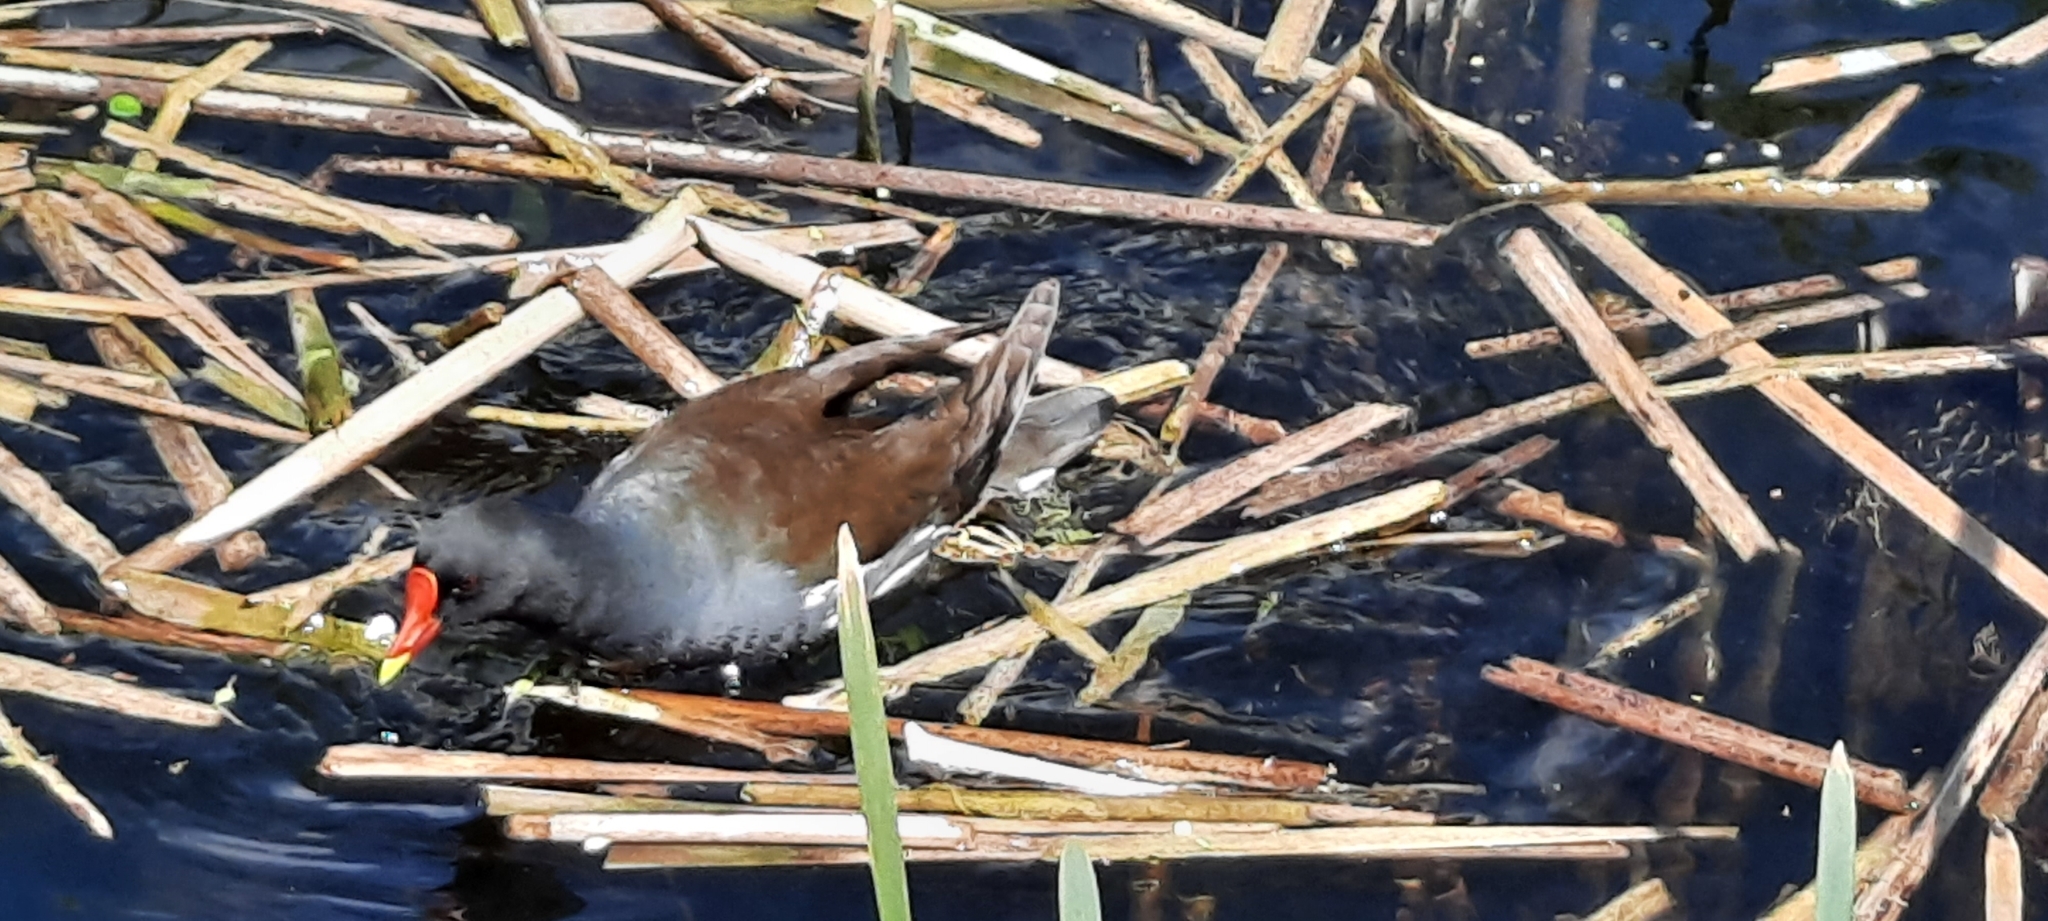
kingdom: Animalia
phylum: Chordata
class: Aves
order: Gruiformes
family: Rallidae
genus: Gallinula
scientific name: Gallinula chloropus
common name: Common moorhen
